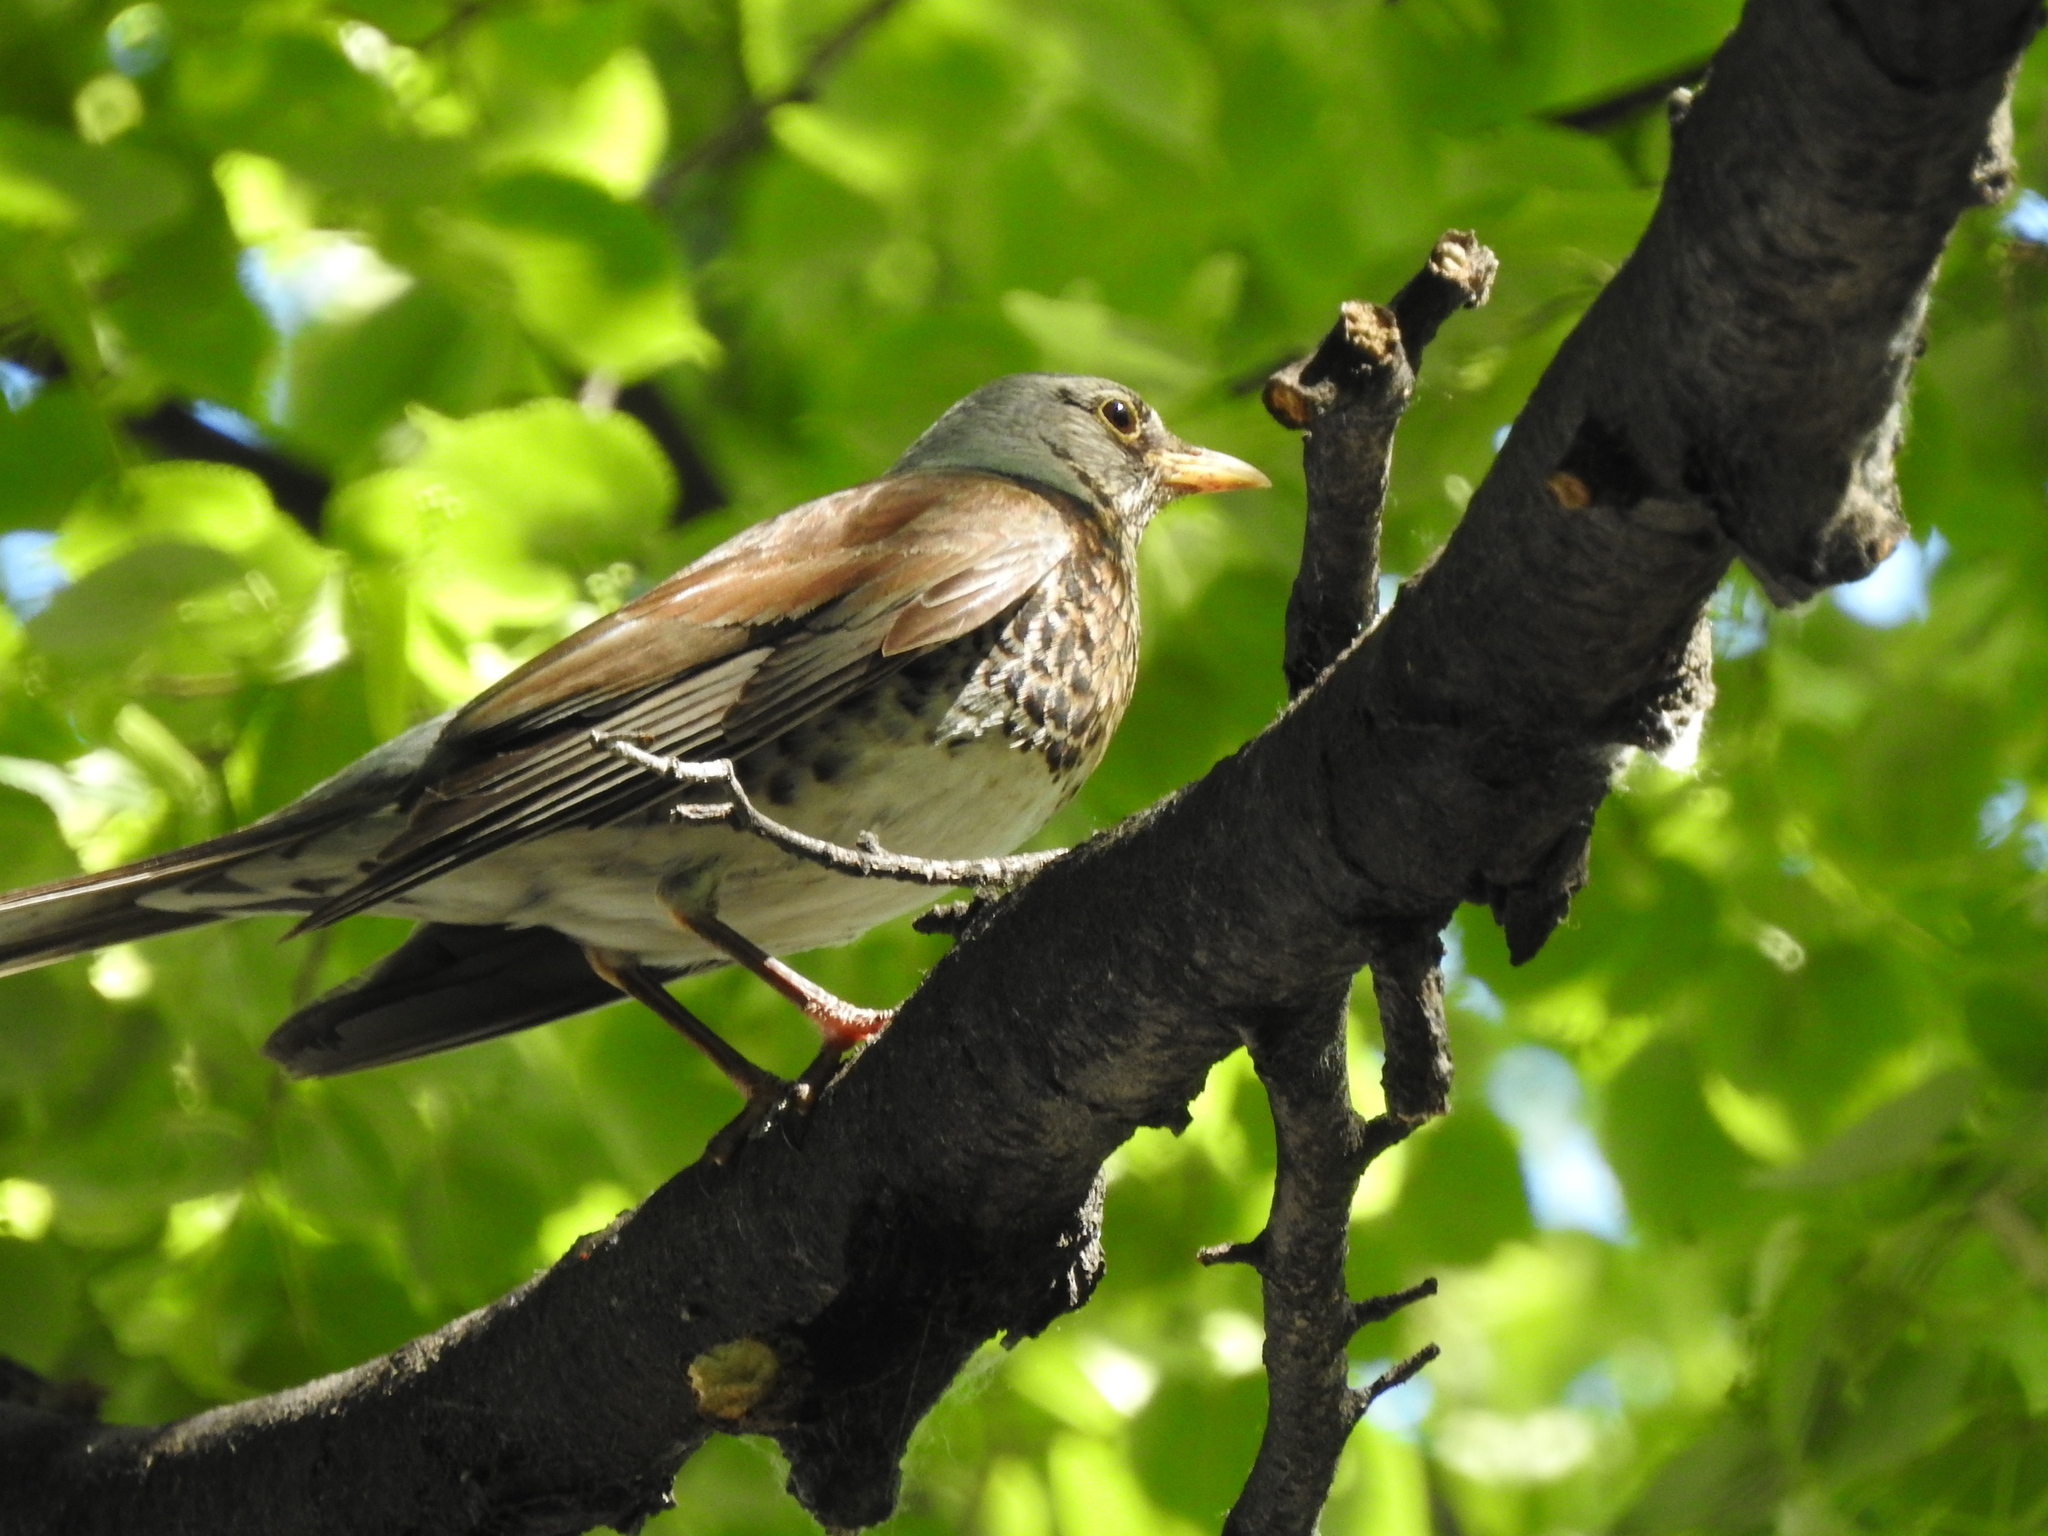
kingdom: Animalia
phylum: Chordata
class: Aves
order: Passeriformes
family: Turdidae
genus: Turdus
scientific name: Turdus pilaris
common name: Fieldfare
